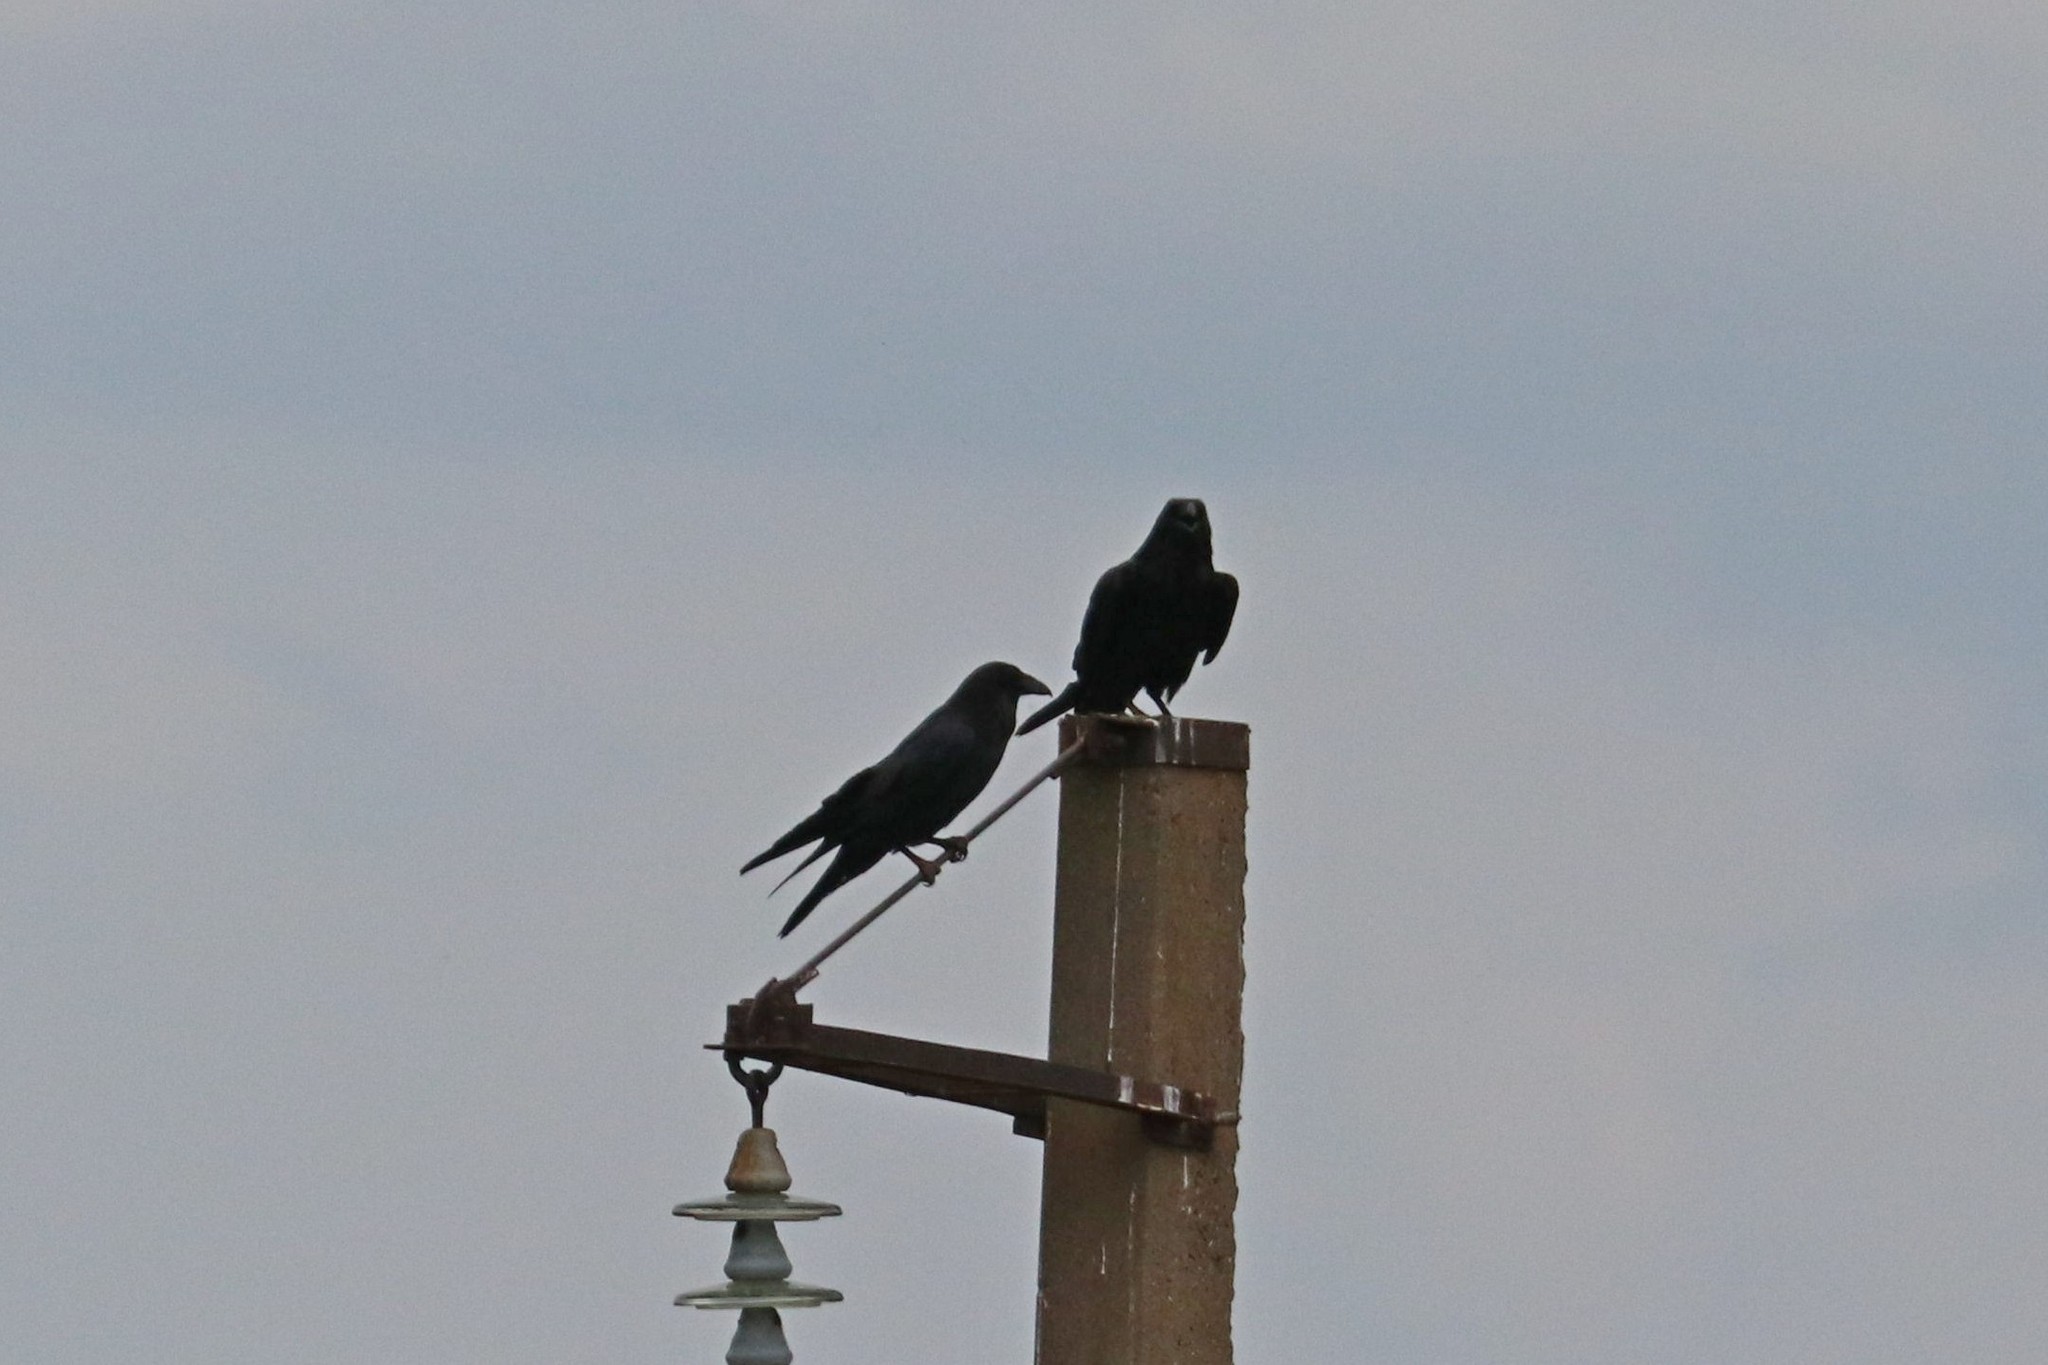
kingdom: Animalia
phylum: Chordata
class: Aves
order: Passeriformes
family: Corvidae
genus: Corvus
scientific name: Corvus corax
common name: Common raven
